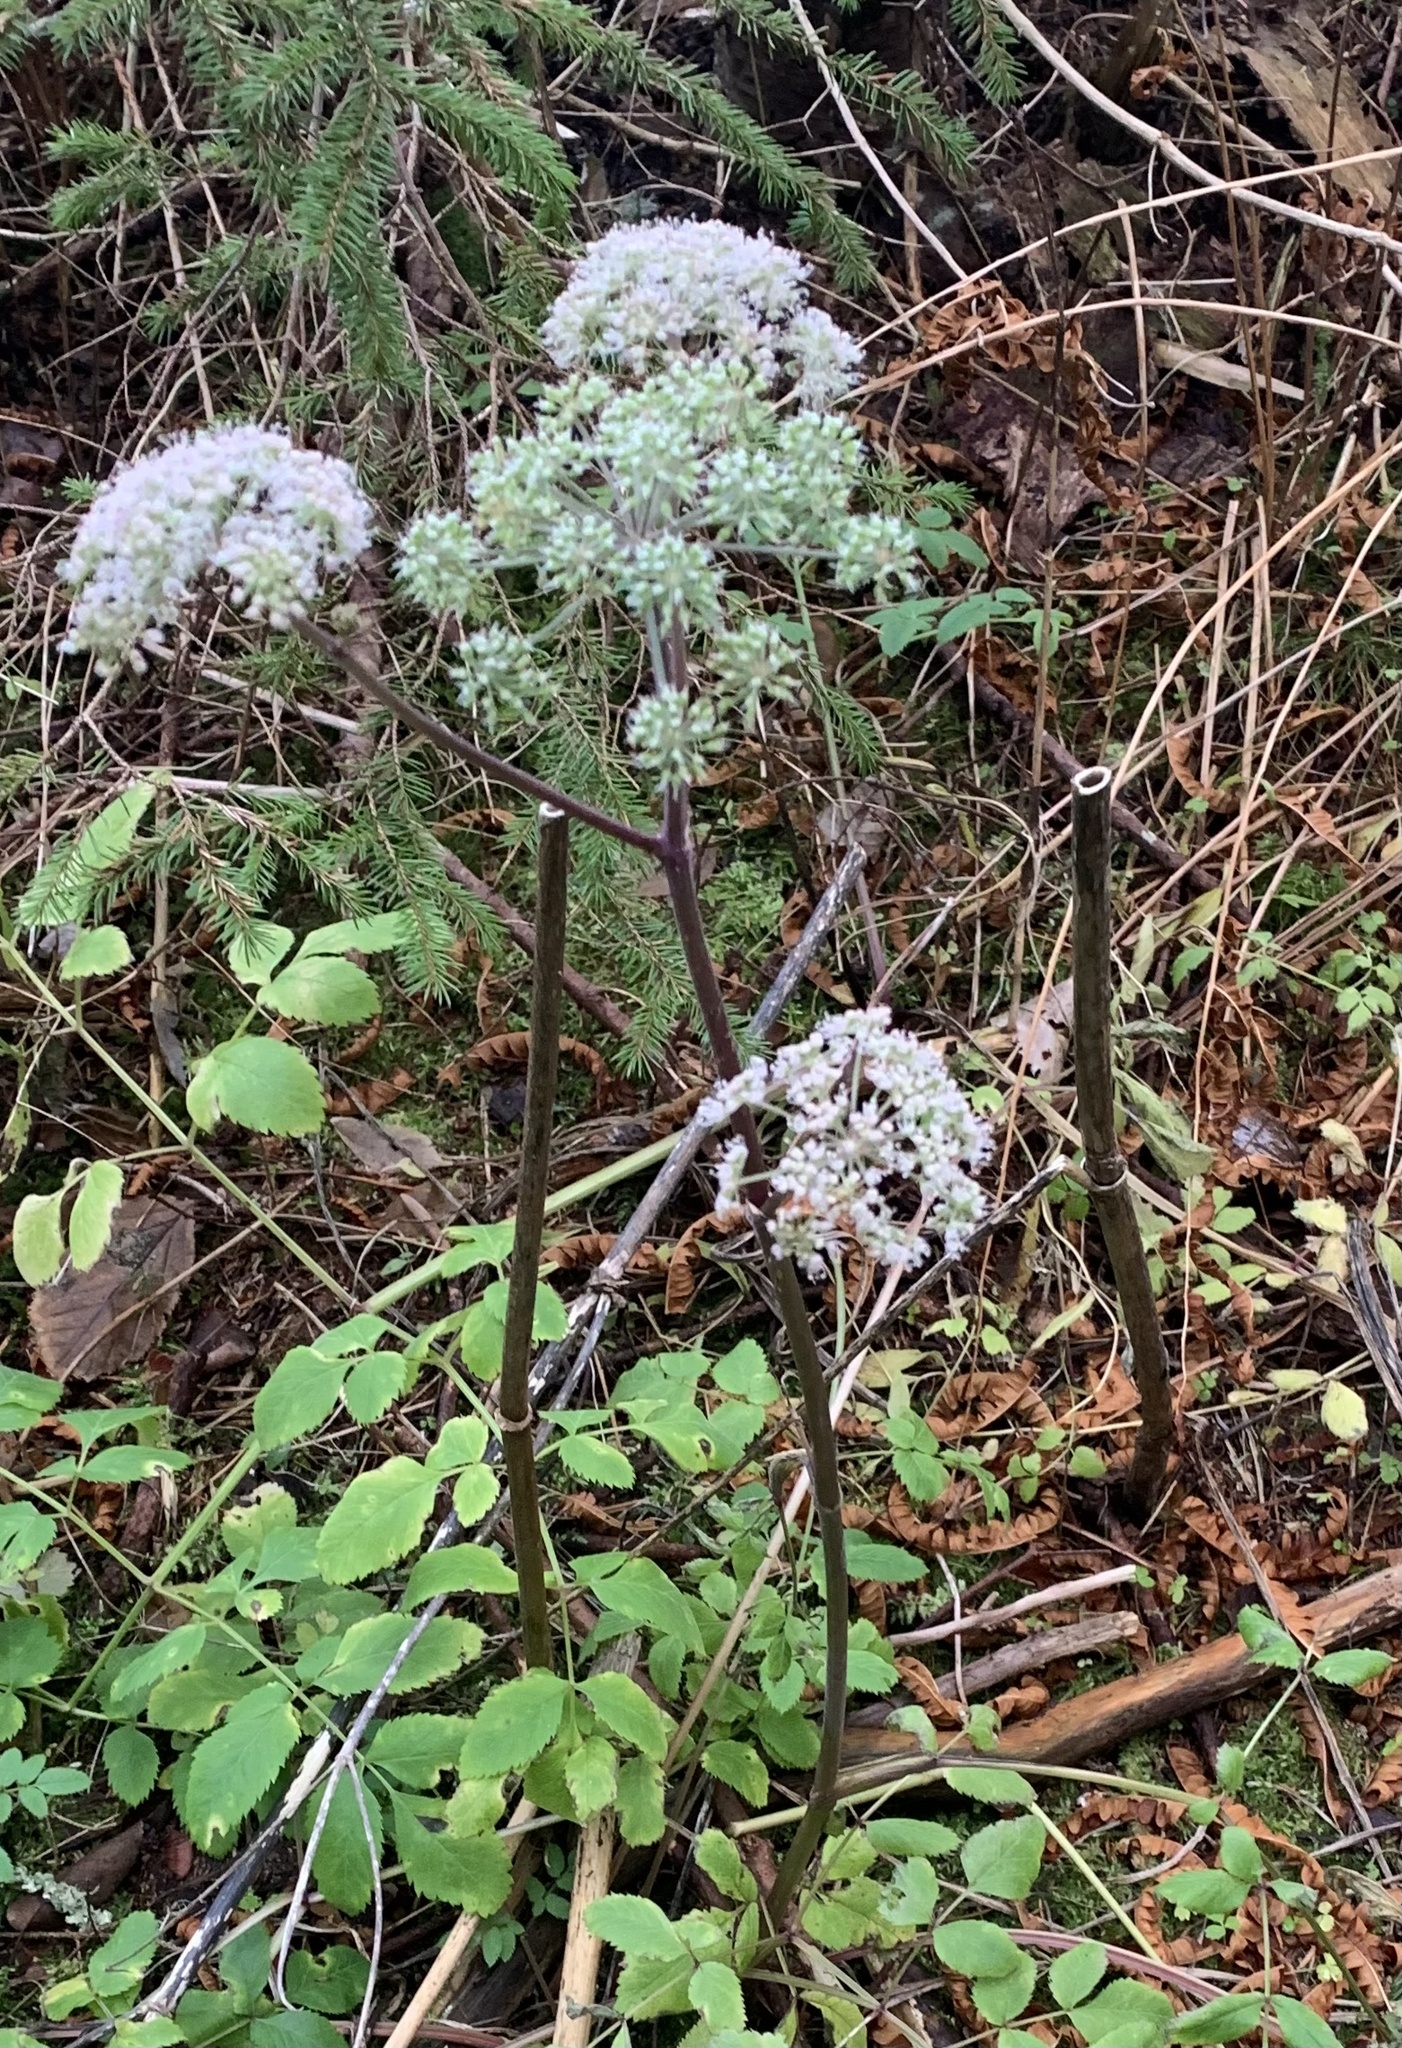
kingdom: Plantae
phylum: Tracheophyta
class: Magnoliopsida
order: Apiales
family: Apiaceae
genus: Angelica
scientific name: Angelica sylvestris
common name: Wild angelica
